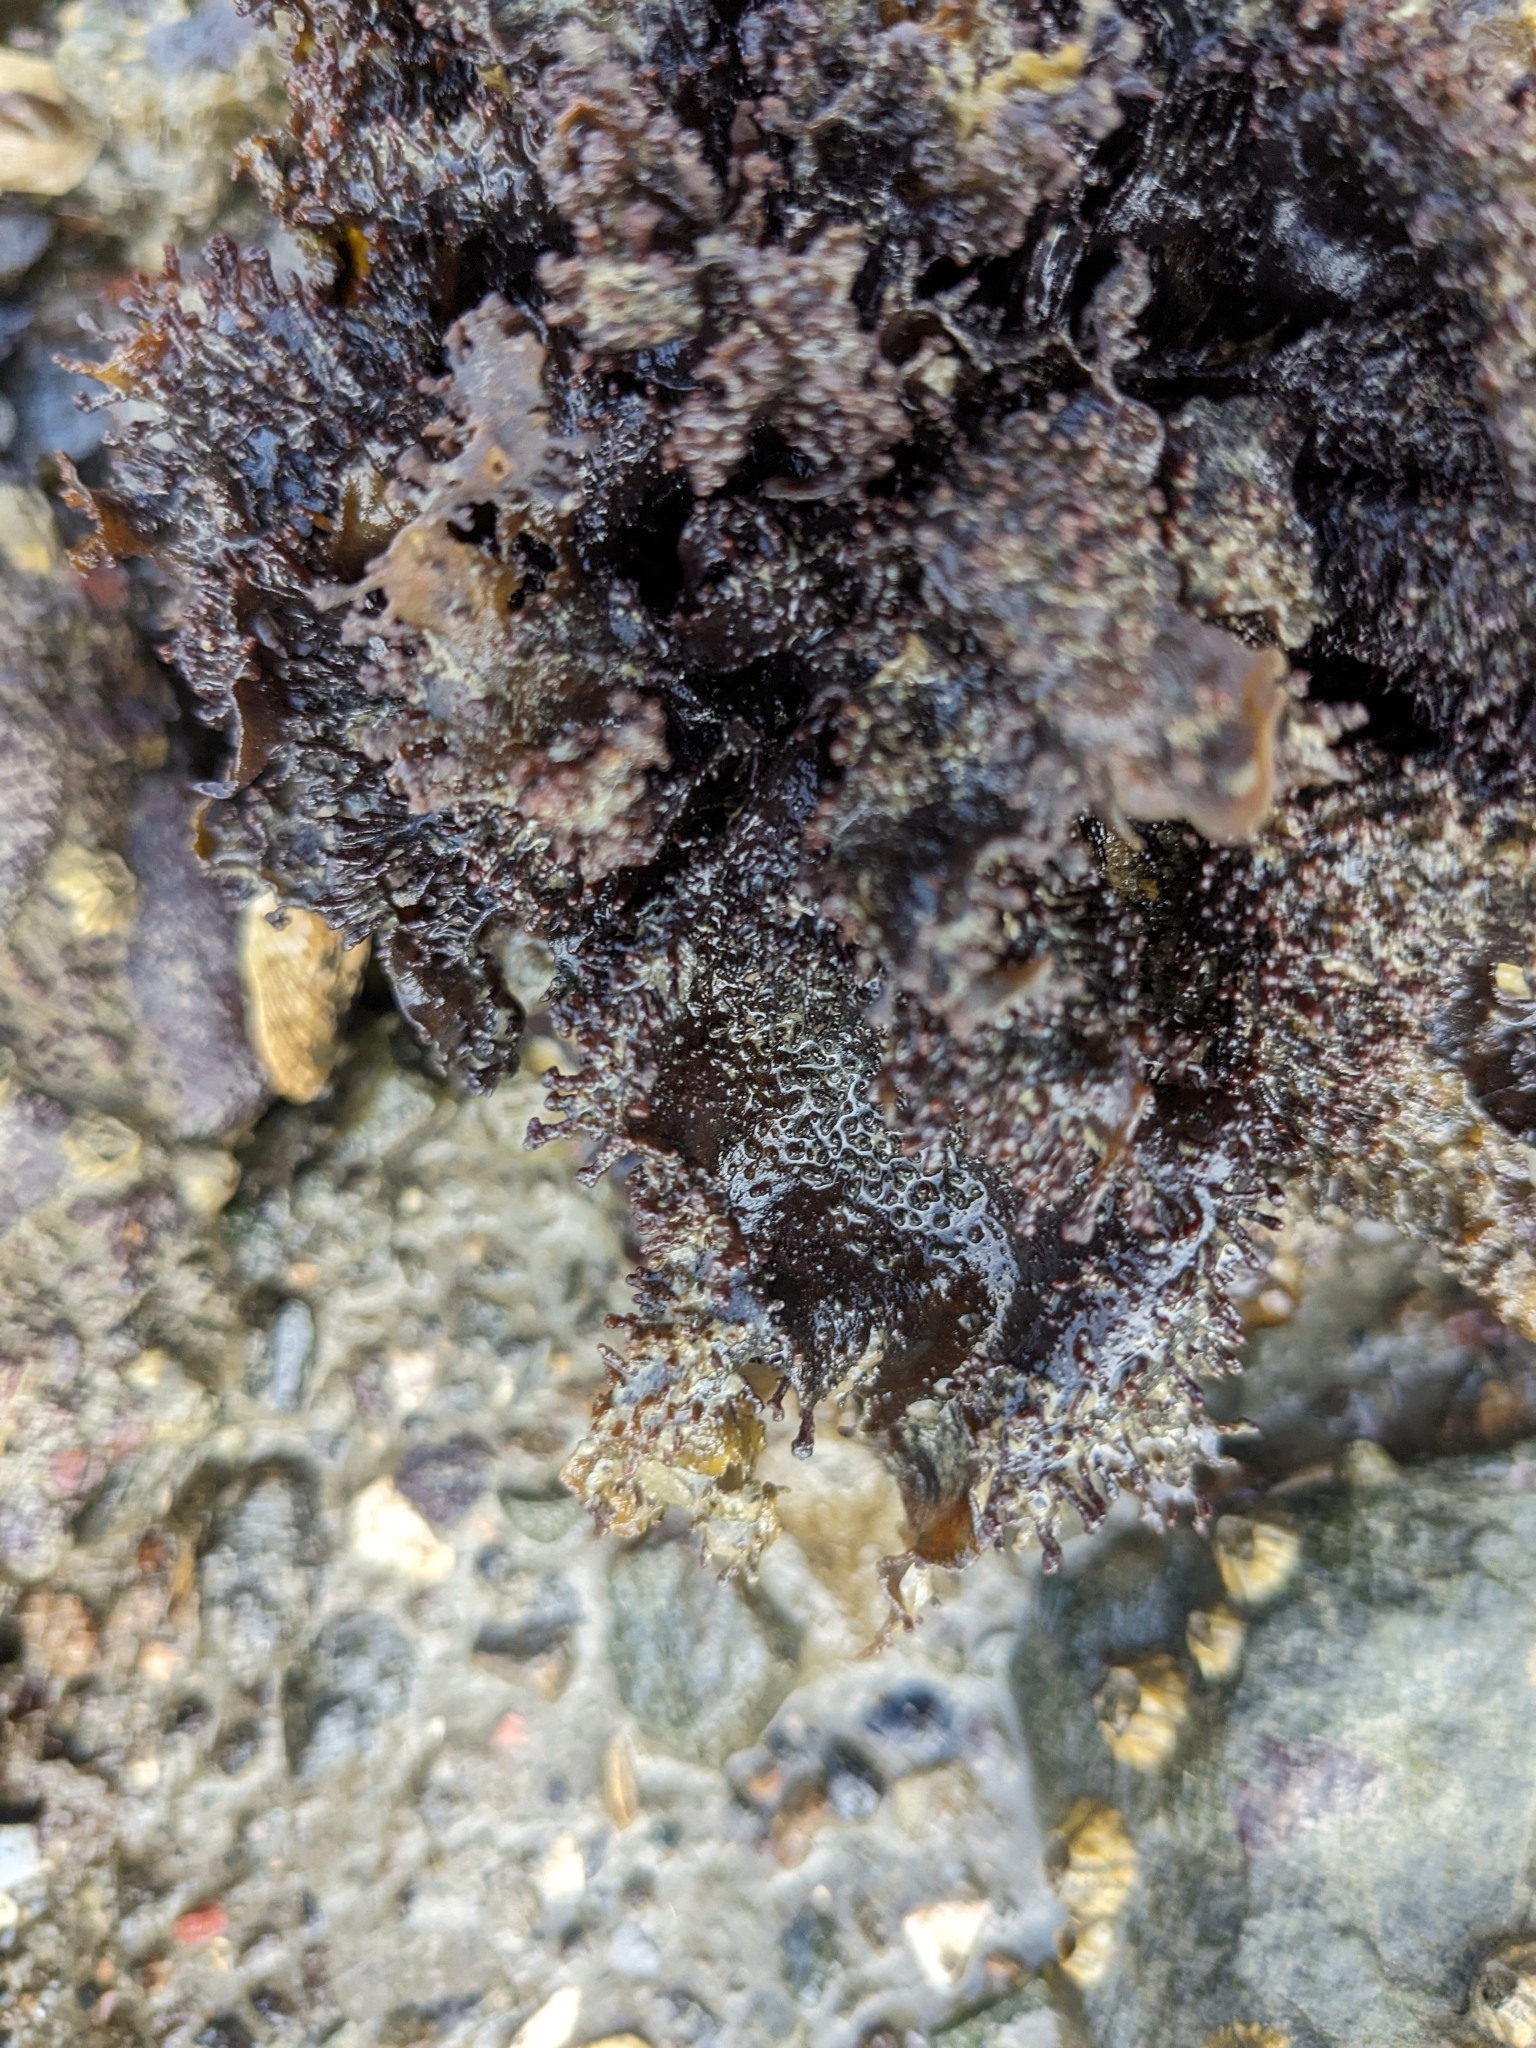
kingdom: Plantae
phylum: Rhodophyta
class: Florideophyceae
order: Gigartinales
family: Phyllophoraceae
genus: Mastocarpus
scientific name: Mastocarpus papillatus
